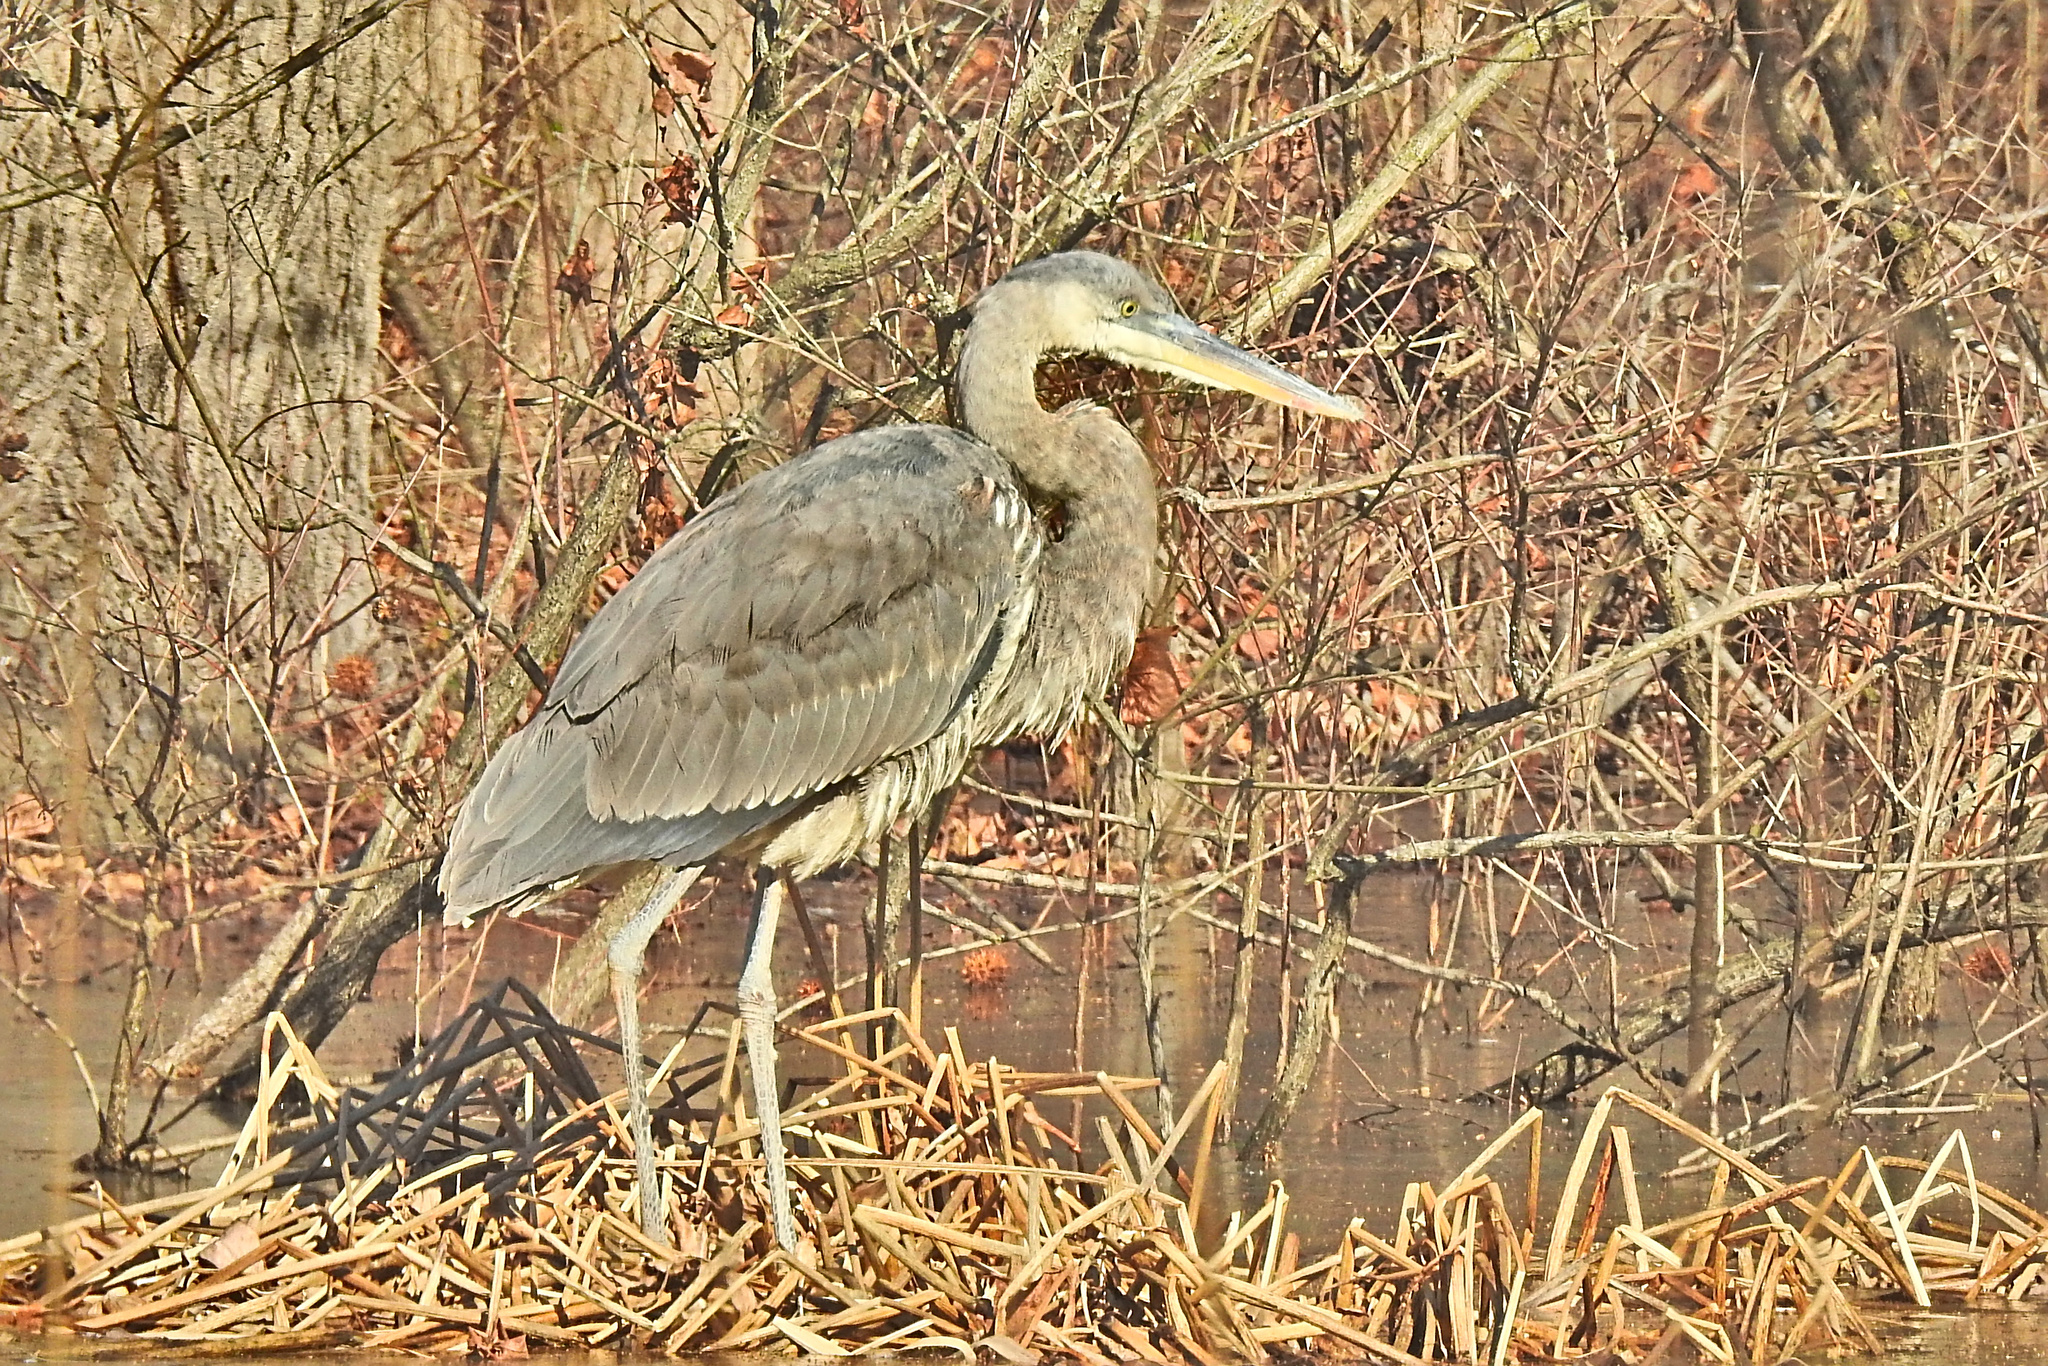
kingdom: Animalia
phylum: Chordata
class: Aves
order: Pelecaniformes
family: Ardeidae
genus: Ardea
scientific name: Ardea herodias
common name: Great blue heron
